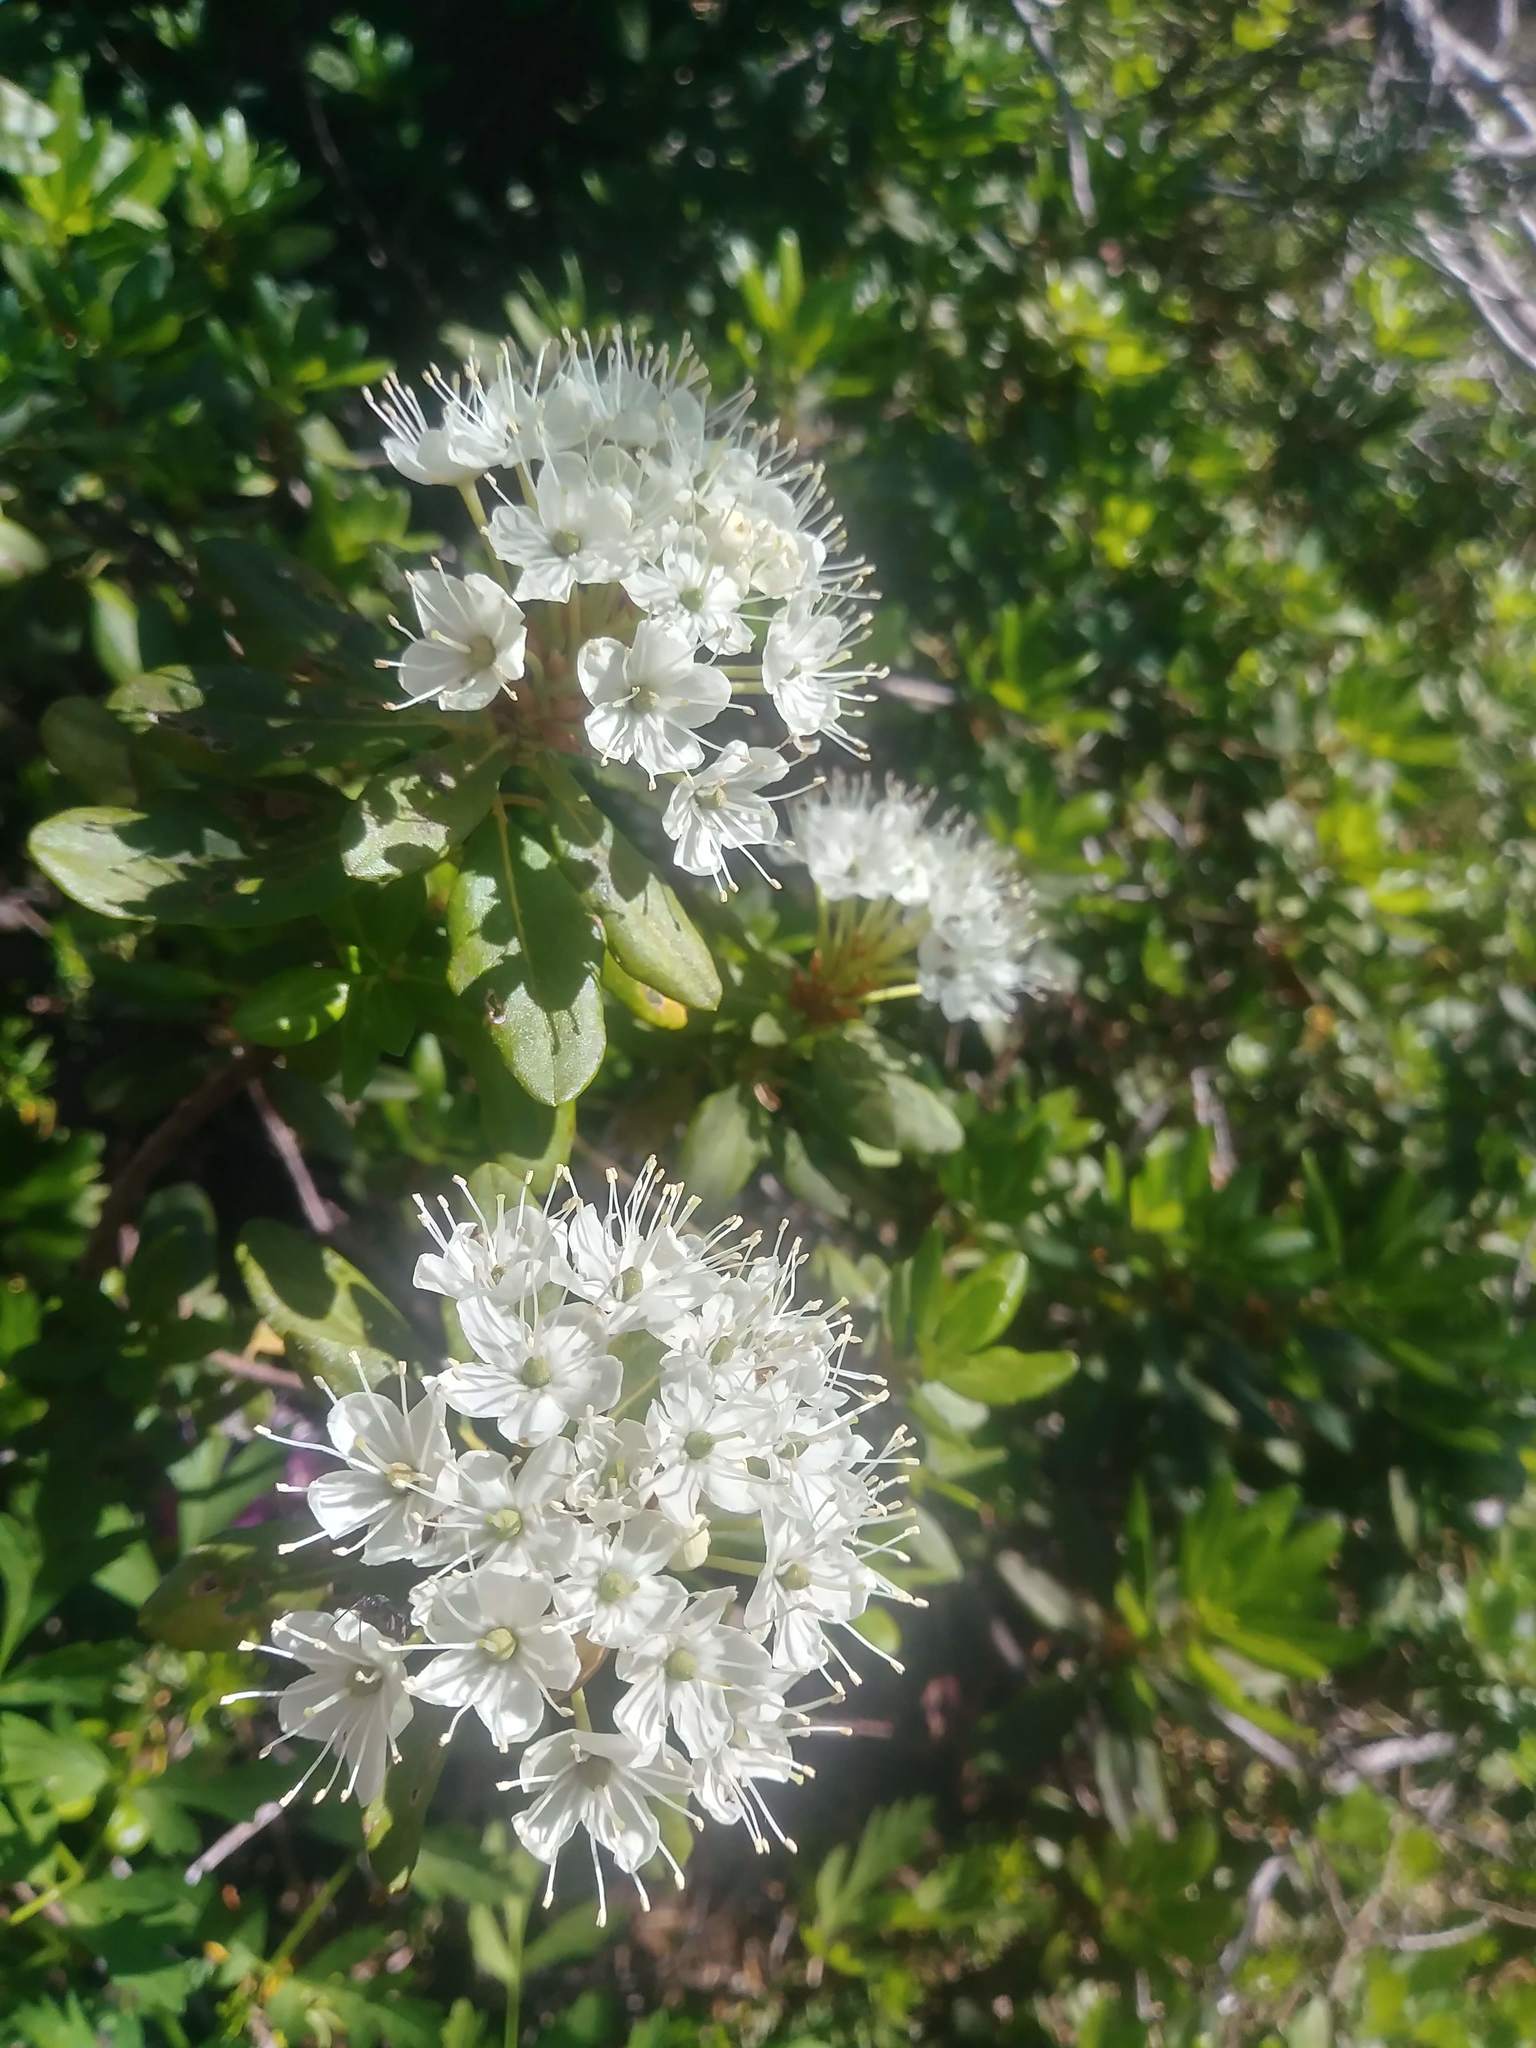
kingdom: Plantae
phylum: Tracheophyta
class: Magnoliopsida
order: Ericales
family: Ericaceae
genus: Rhododendron
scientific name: Rhododendron columbianum
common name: Western labrador tea
